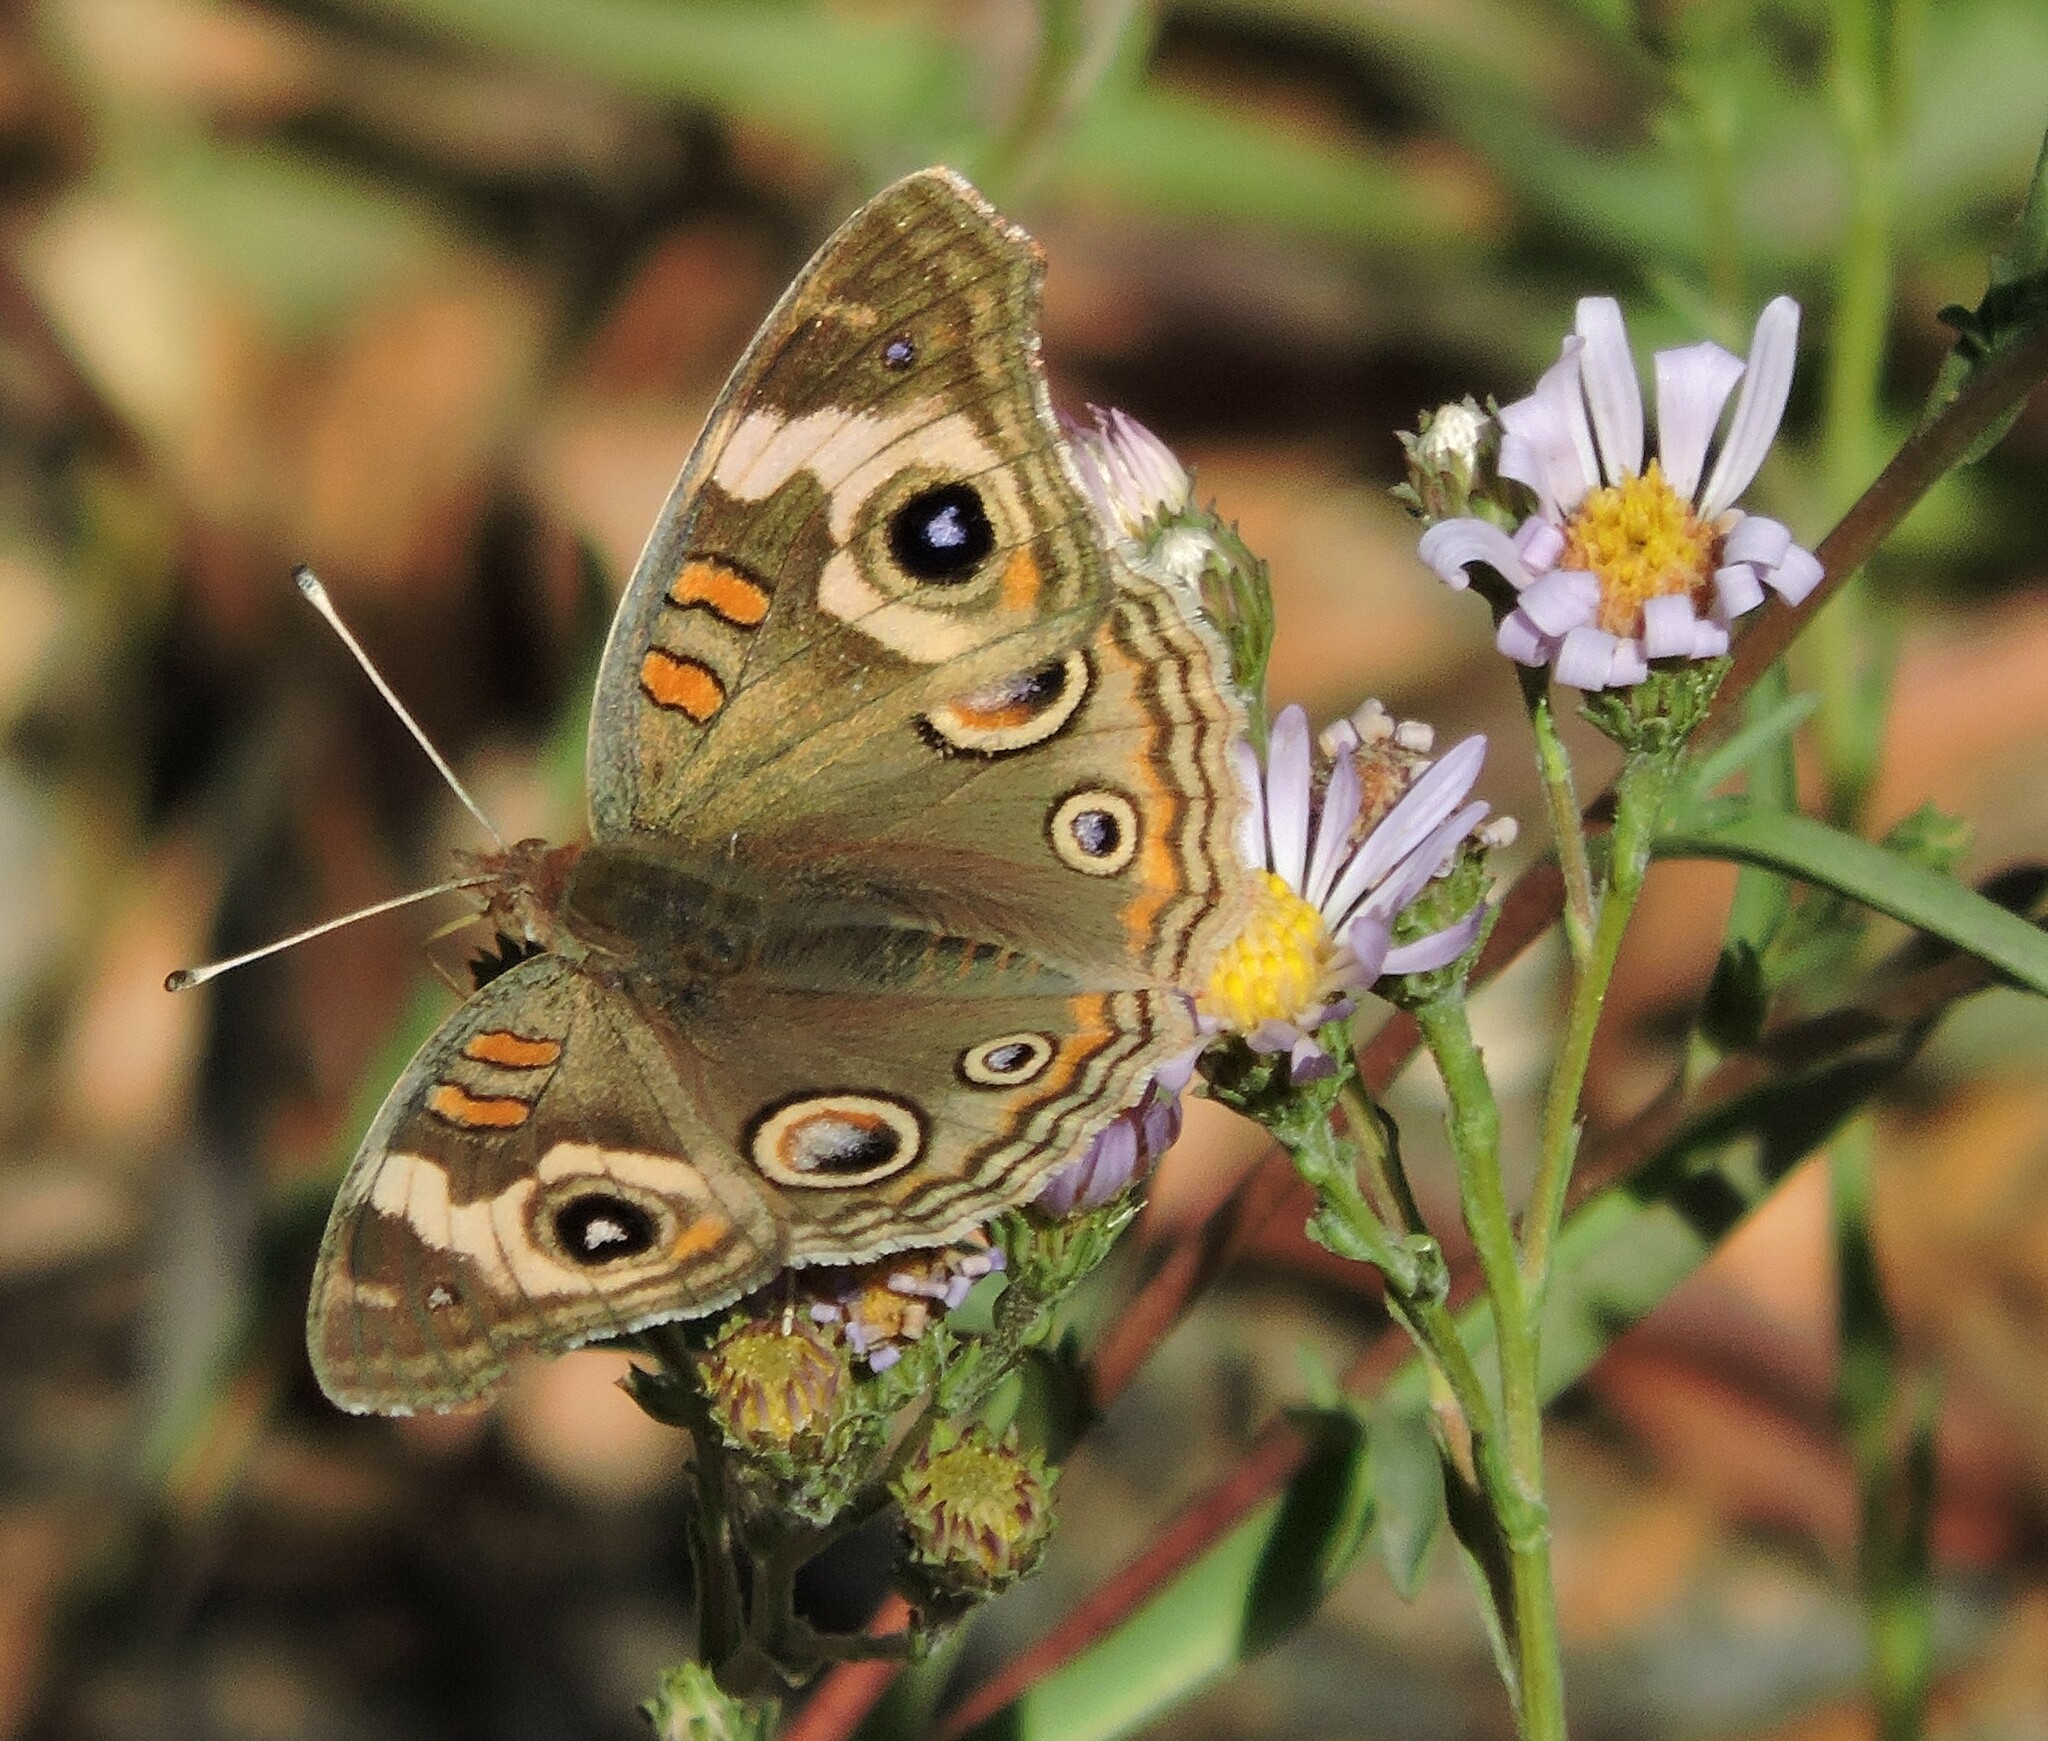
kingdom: Animalia
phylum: Arthropoda
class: Insecta
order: Lepidoptera
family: Nymphalidae
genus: Junonia
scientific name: Junonia grisea
